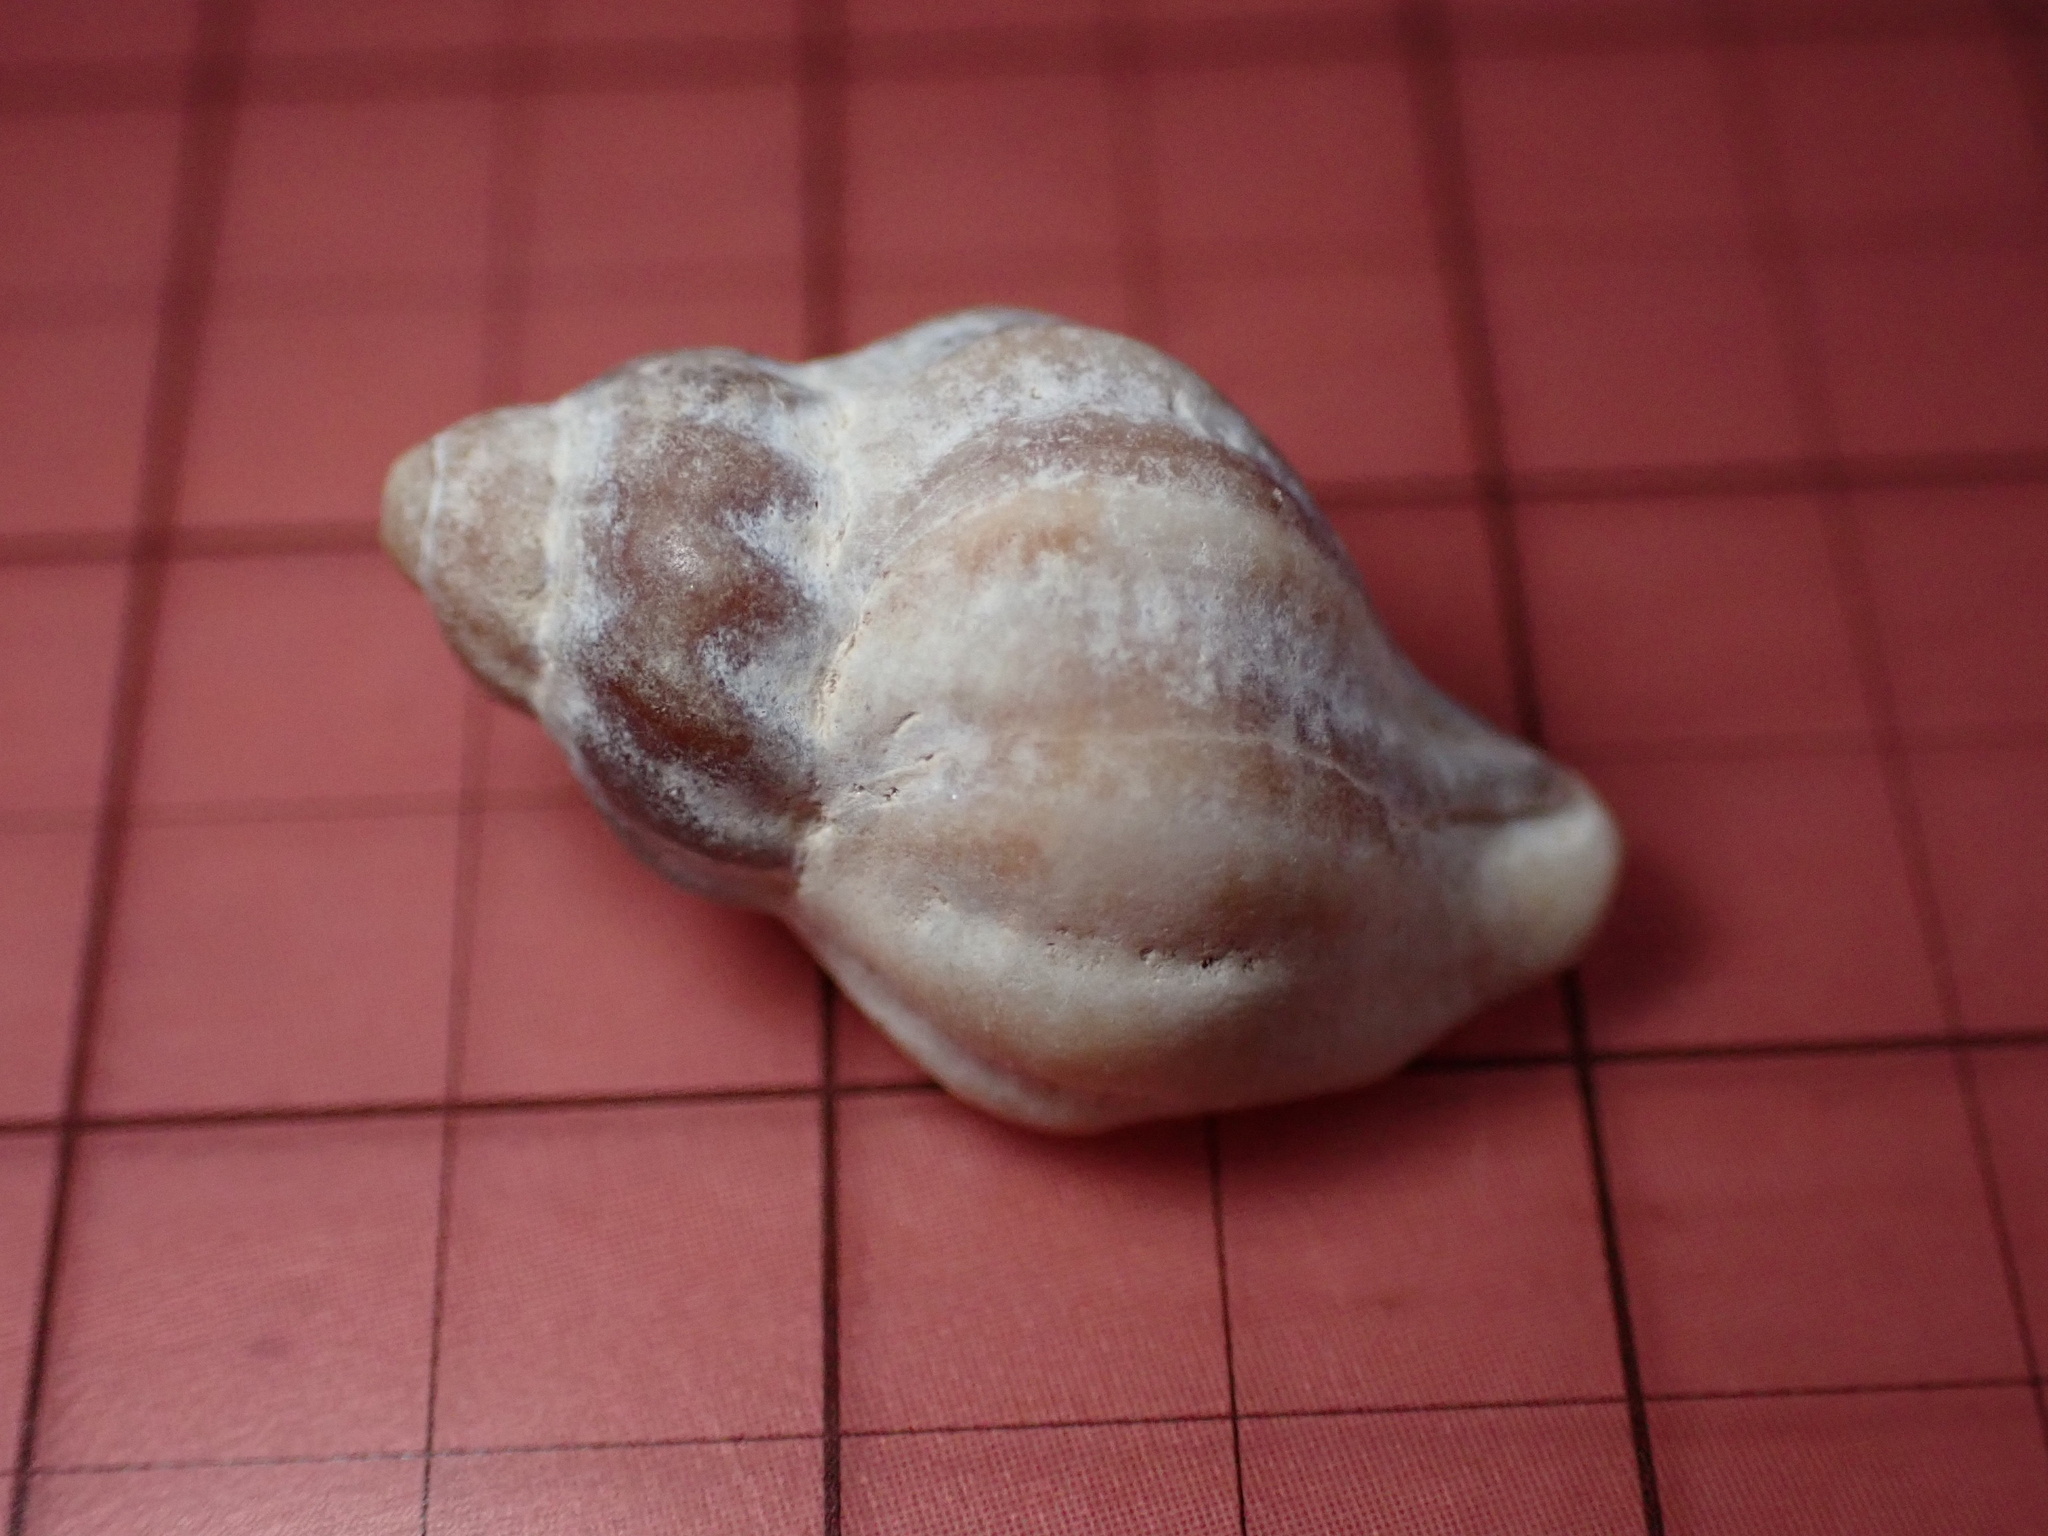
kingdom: Animalia
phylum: Mollusca
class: Gastropoda
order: Neogastropoda
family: Muricidae
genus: Urosalpinx
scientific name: Urosalpinx cinerea
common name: American sting winkle
